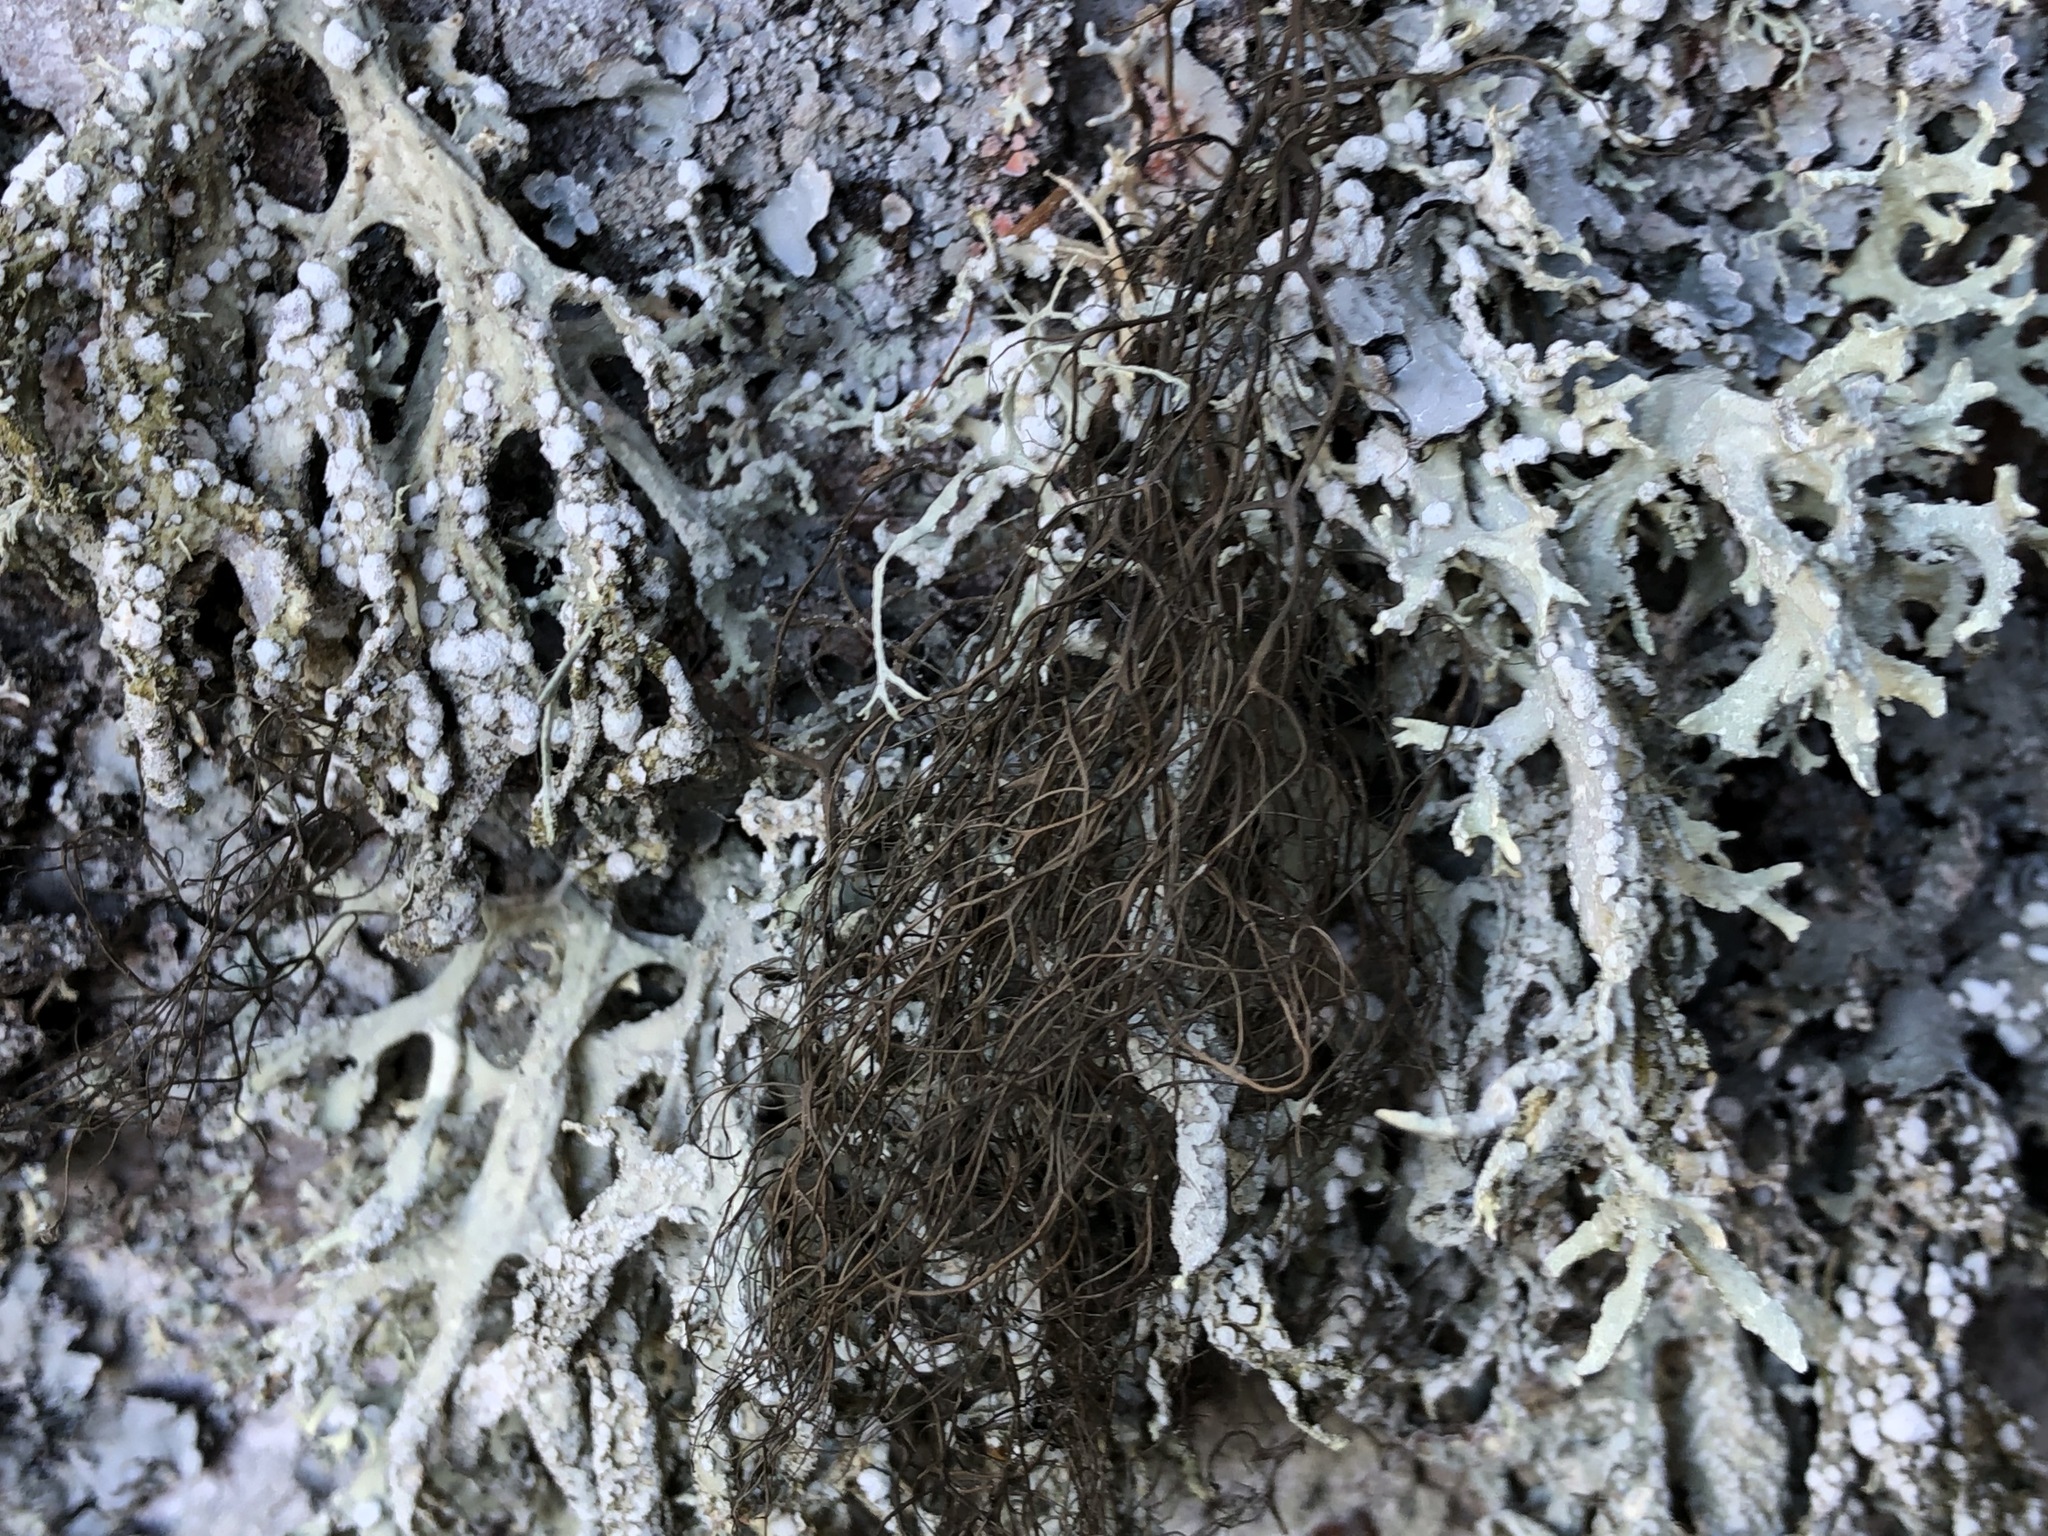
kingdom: Fungi
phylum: Ascomycota
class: Lecanoromycetes
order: Lecanorales
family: Parmeliaceae
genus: Bryoria
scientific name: Bryoria fuscescens
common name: Pale-footed horsehair lichen
